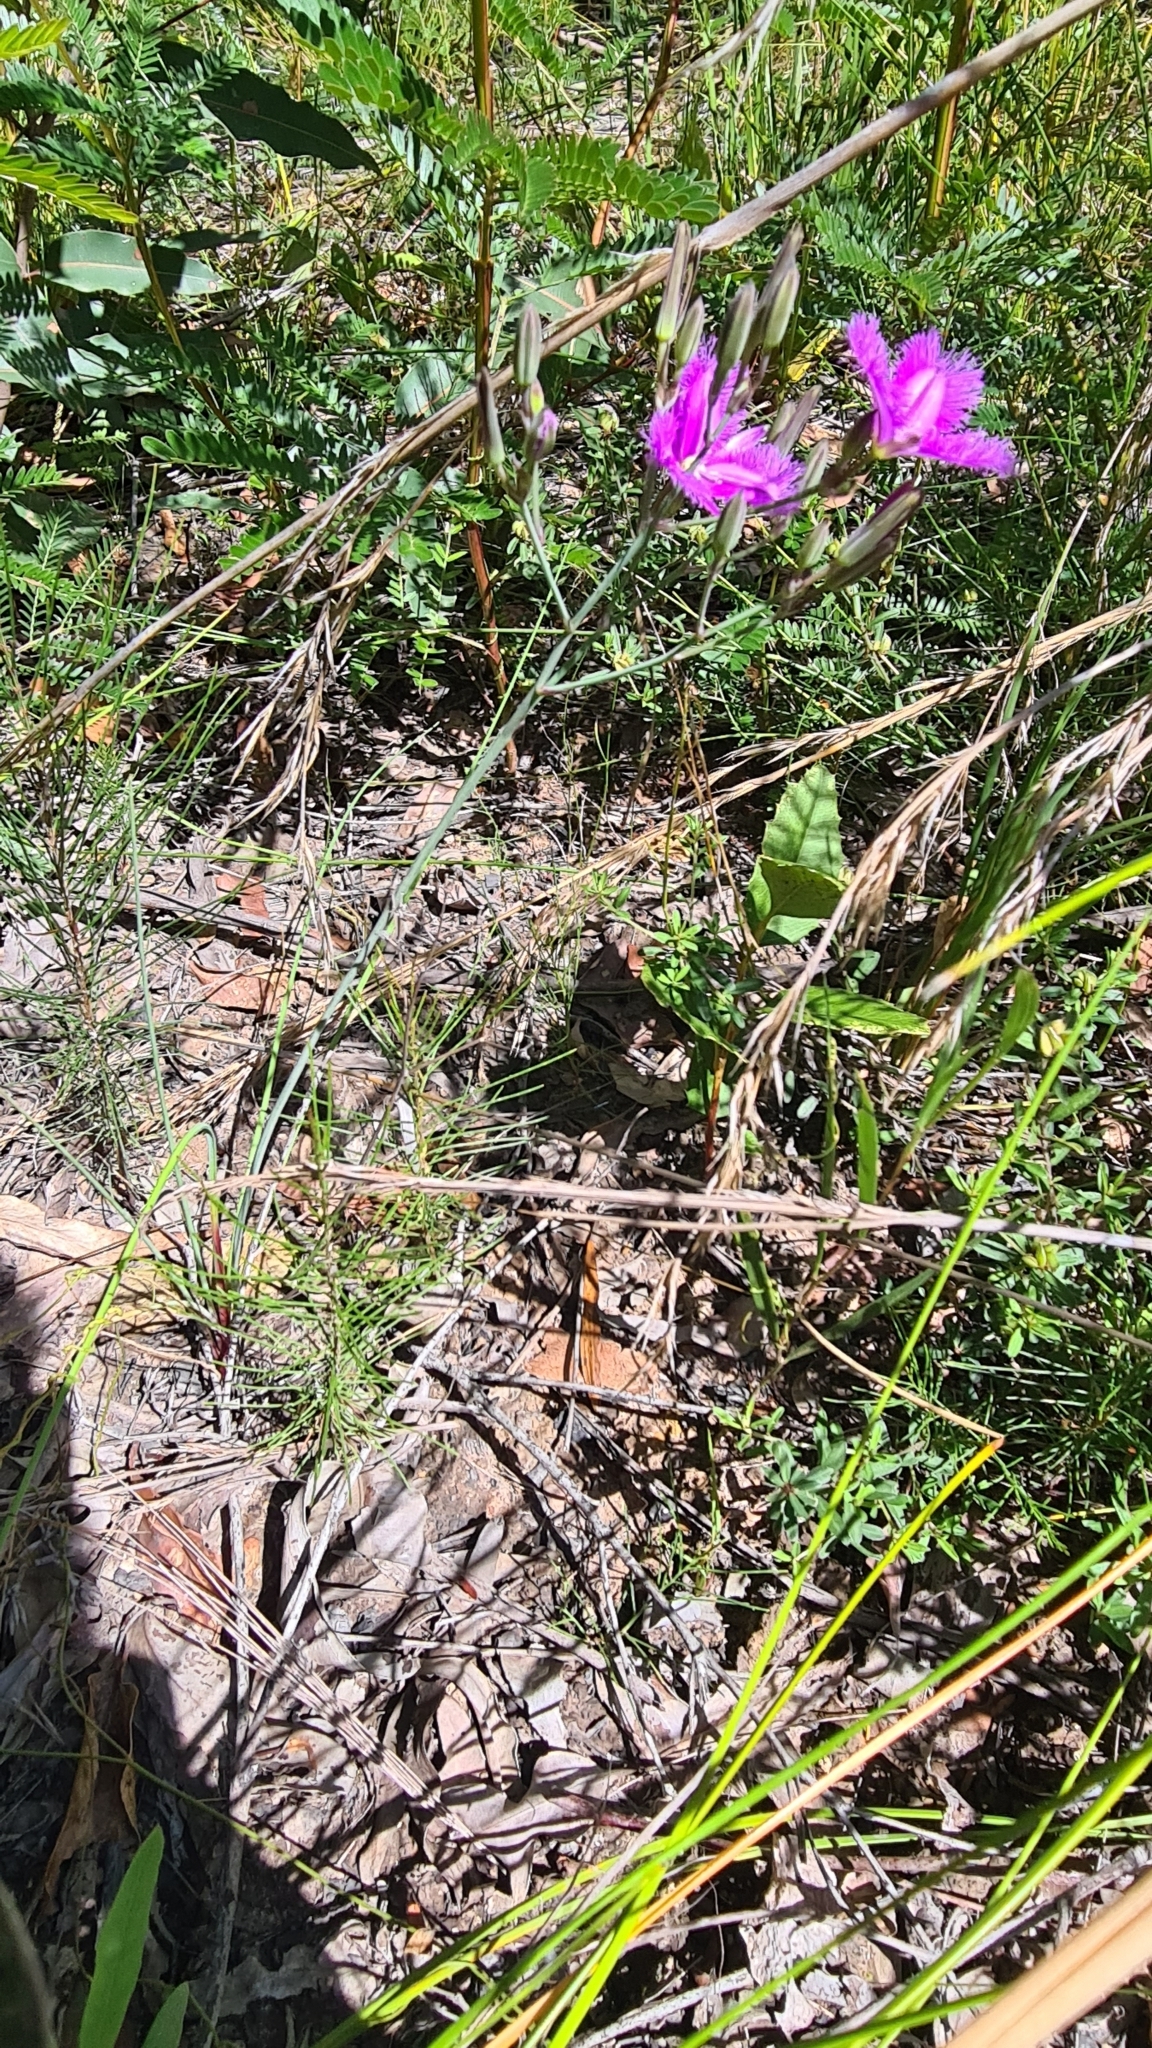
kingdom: Plantae
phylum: Tracheophyta
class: Liliopsida
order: Asparagales
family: Asparagaceae
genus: Thysanotus
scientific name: Thysanotus tuberosus
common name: Common fringed-lily
